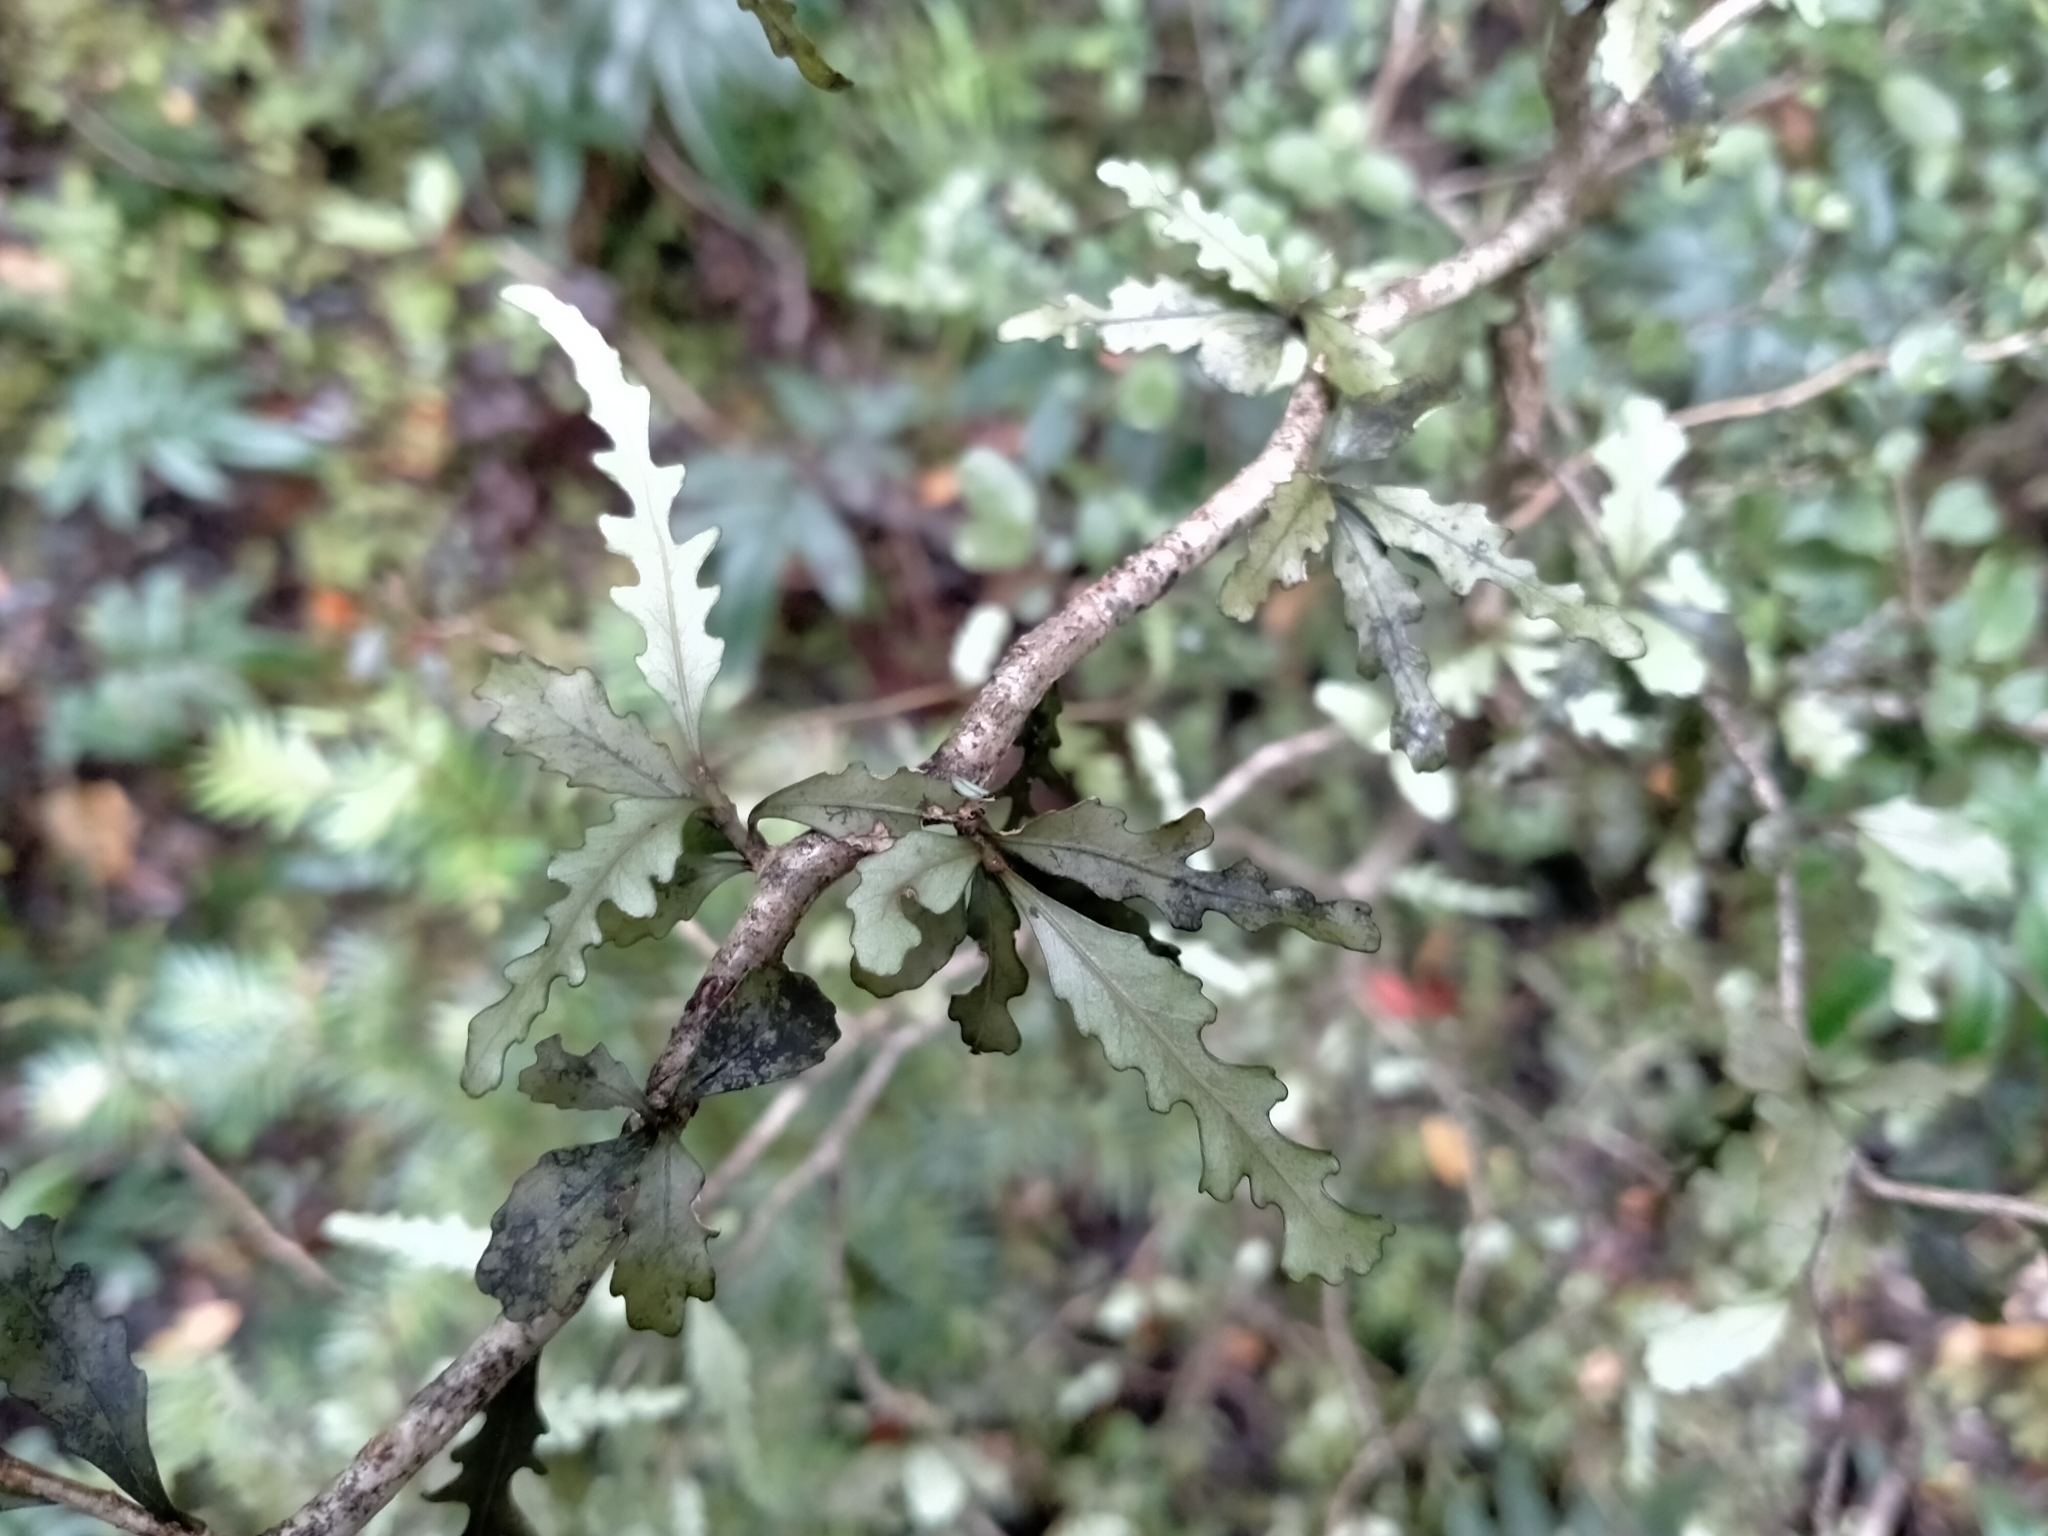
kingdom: Plantae
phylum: Tracheophyta
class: Magnoliopsida
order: Oxalidales
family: Elaeocarpaceae
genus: Elaeocarpus
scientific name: Elaeocarpus hookerianus
